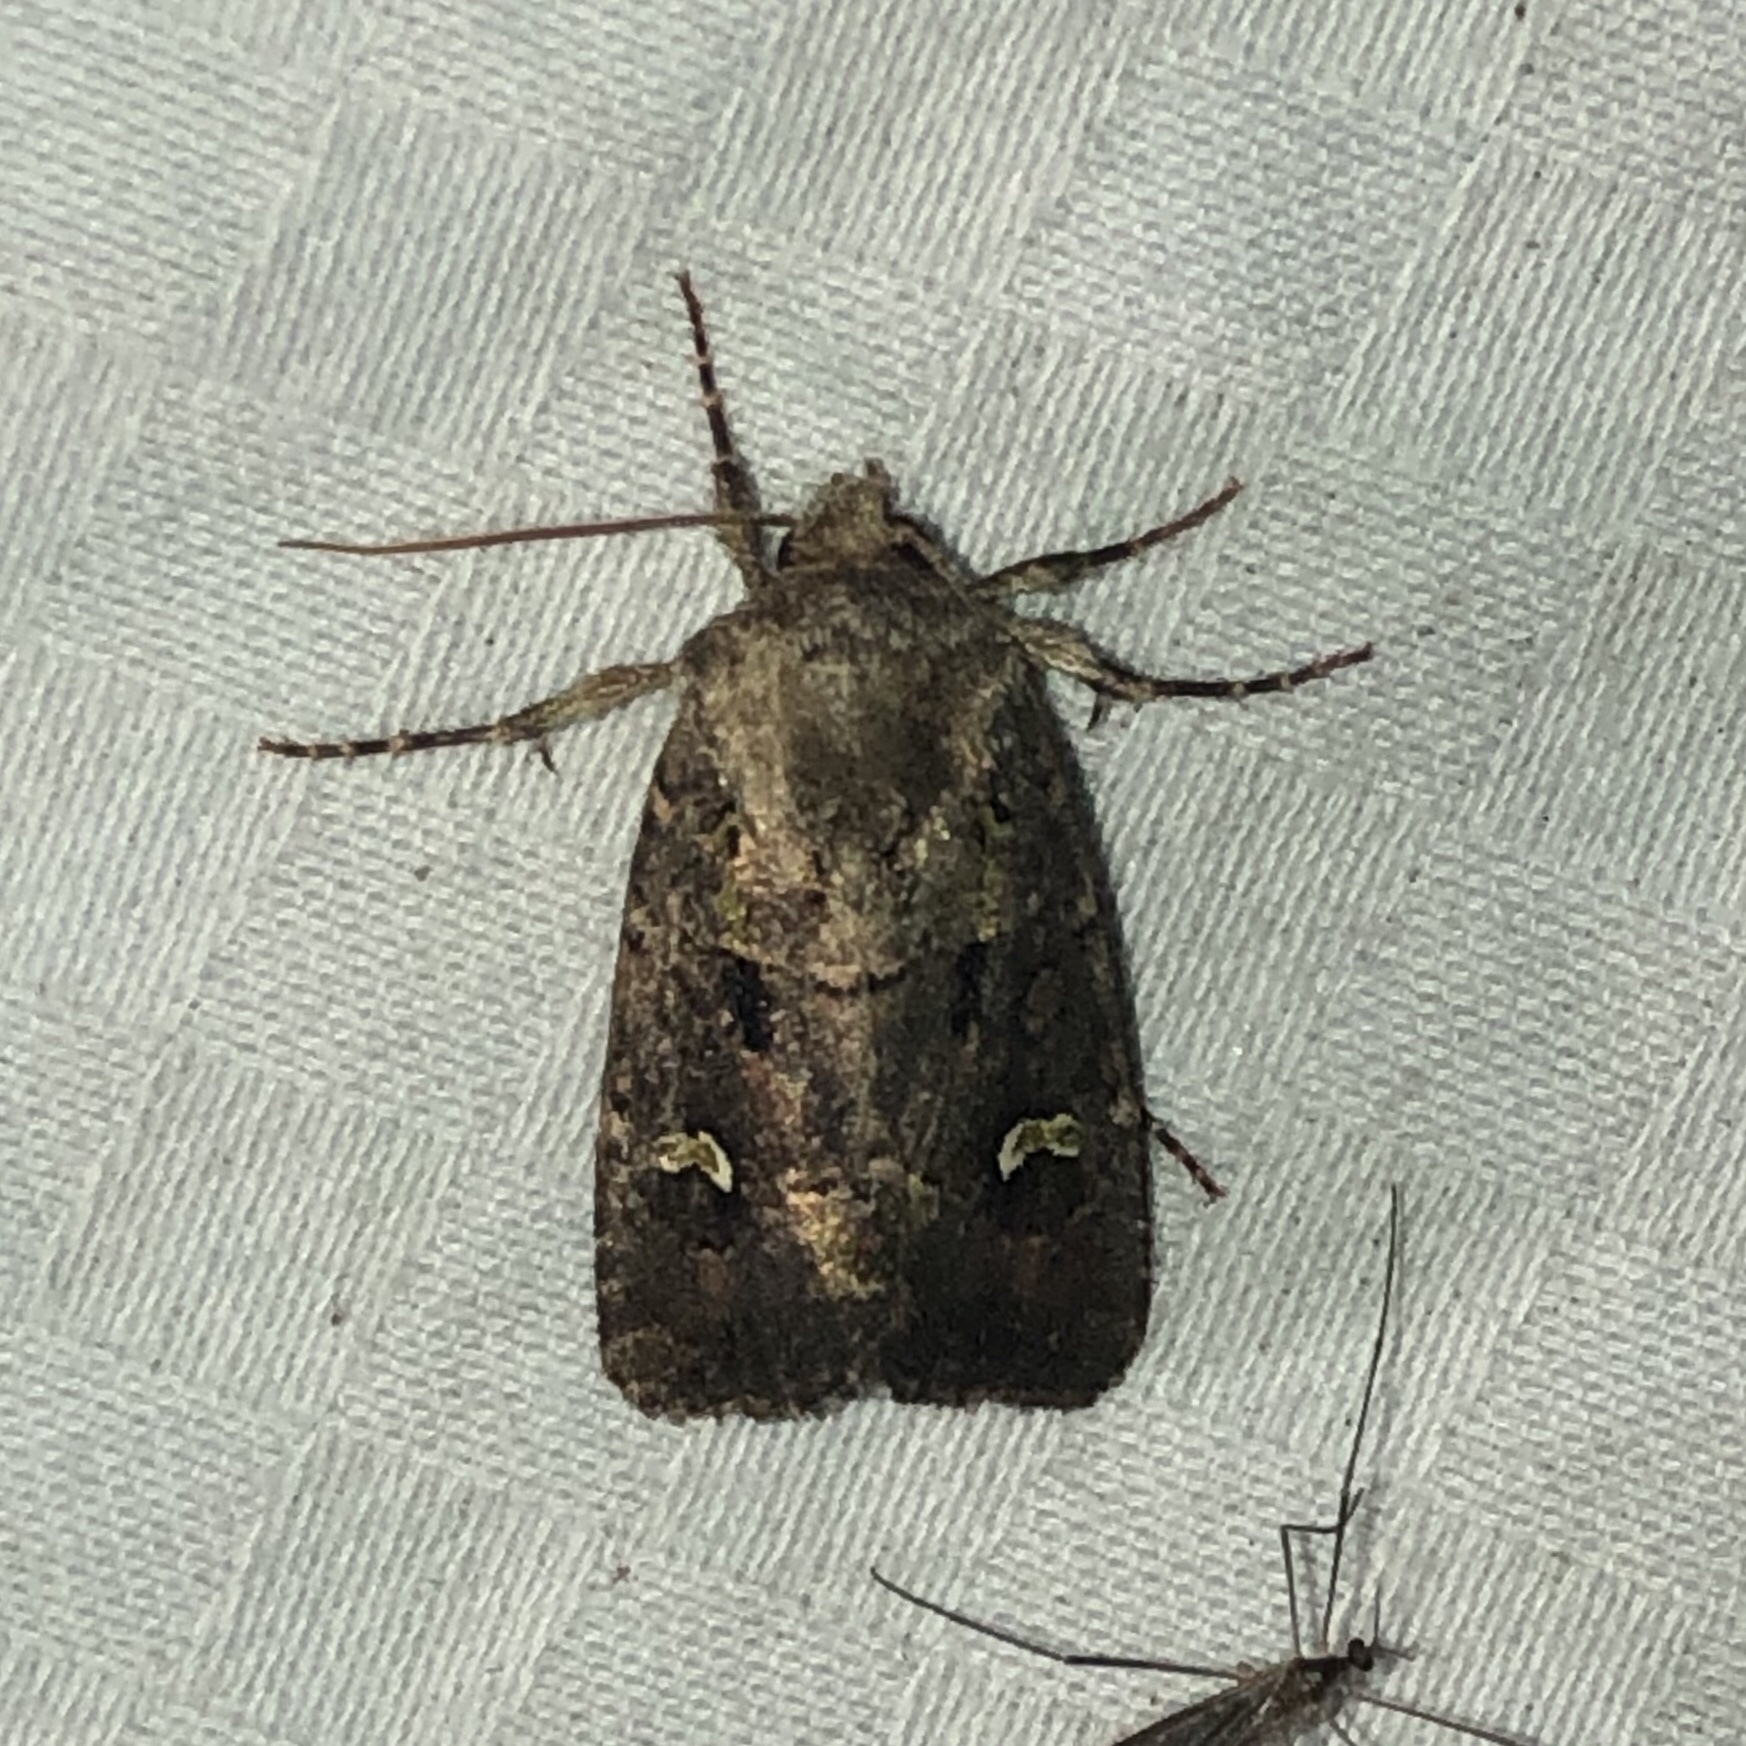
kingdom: Animalia
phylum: Arthropoda
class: Insecta
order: Lepidoptera
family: Noctuidae
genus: Lacinipolia
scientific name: Lacinipolia renigera
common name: Kidney-spotted minor
